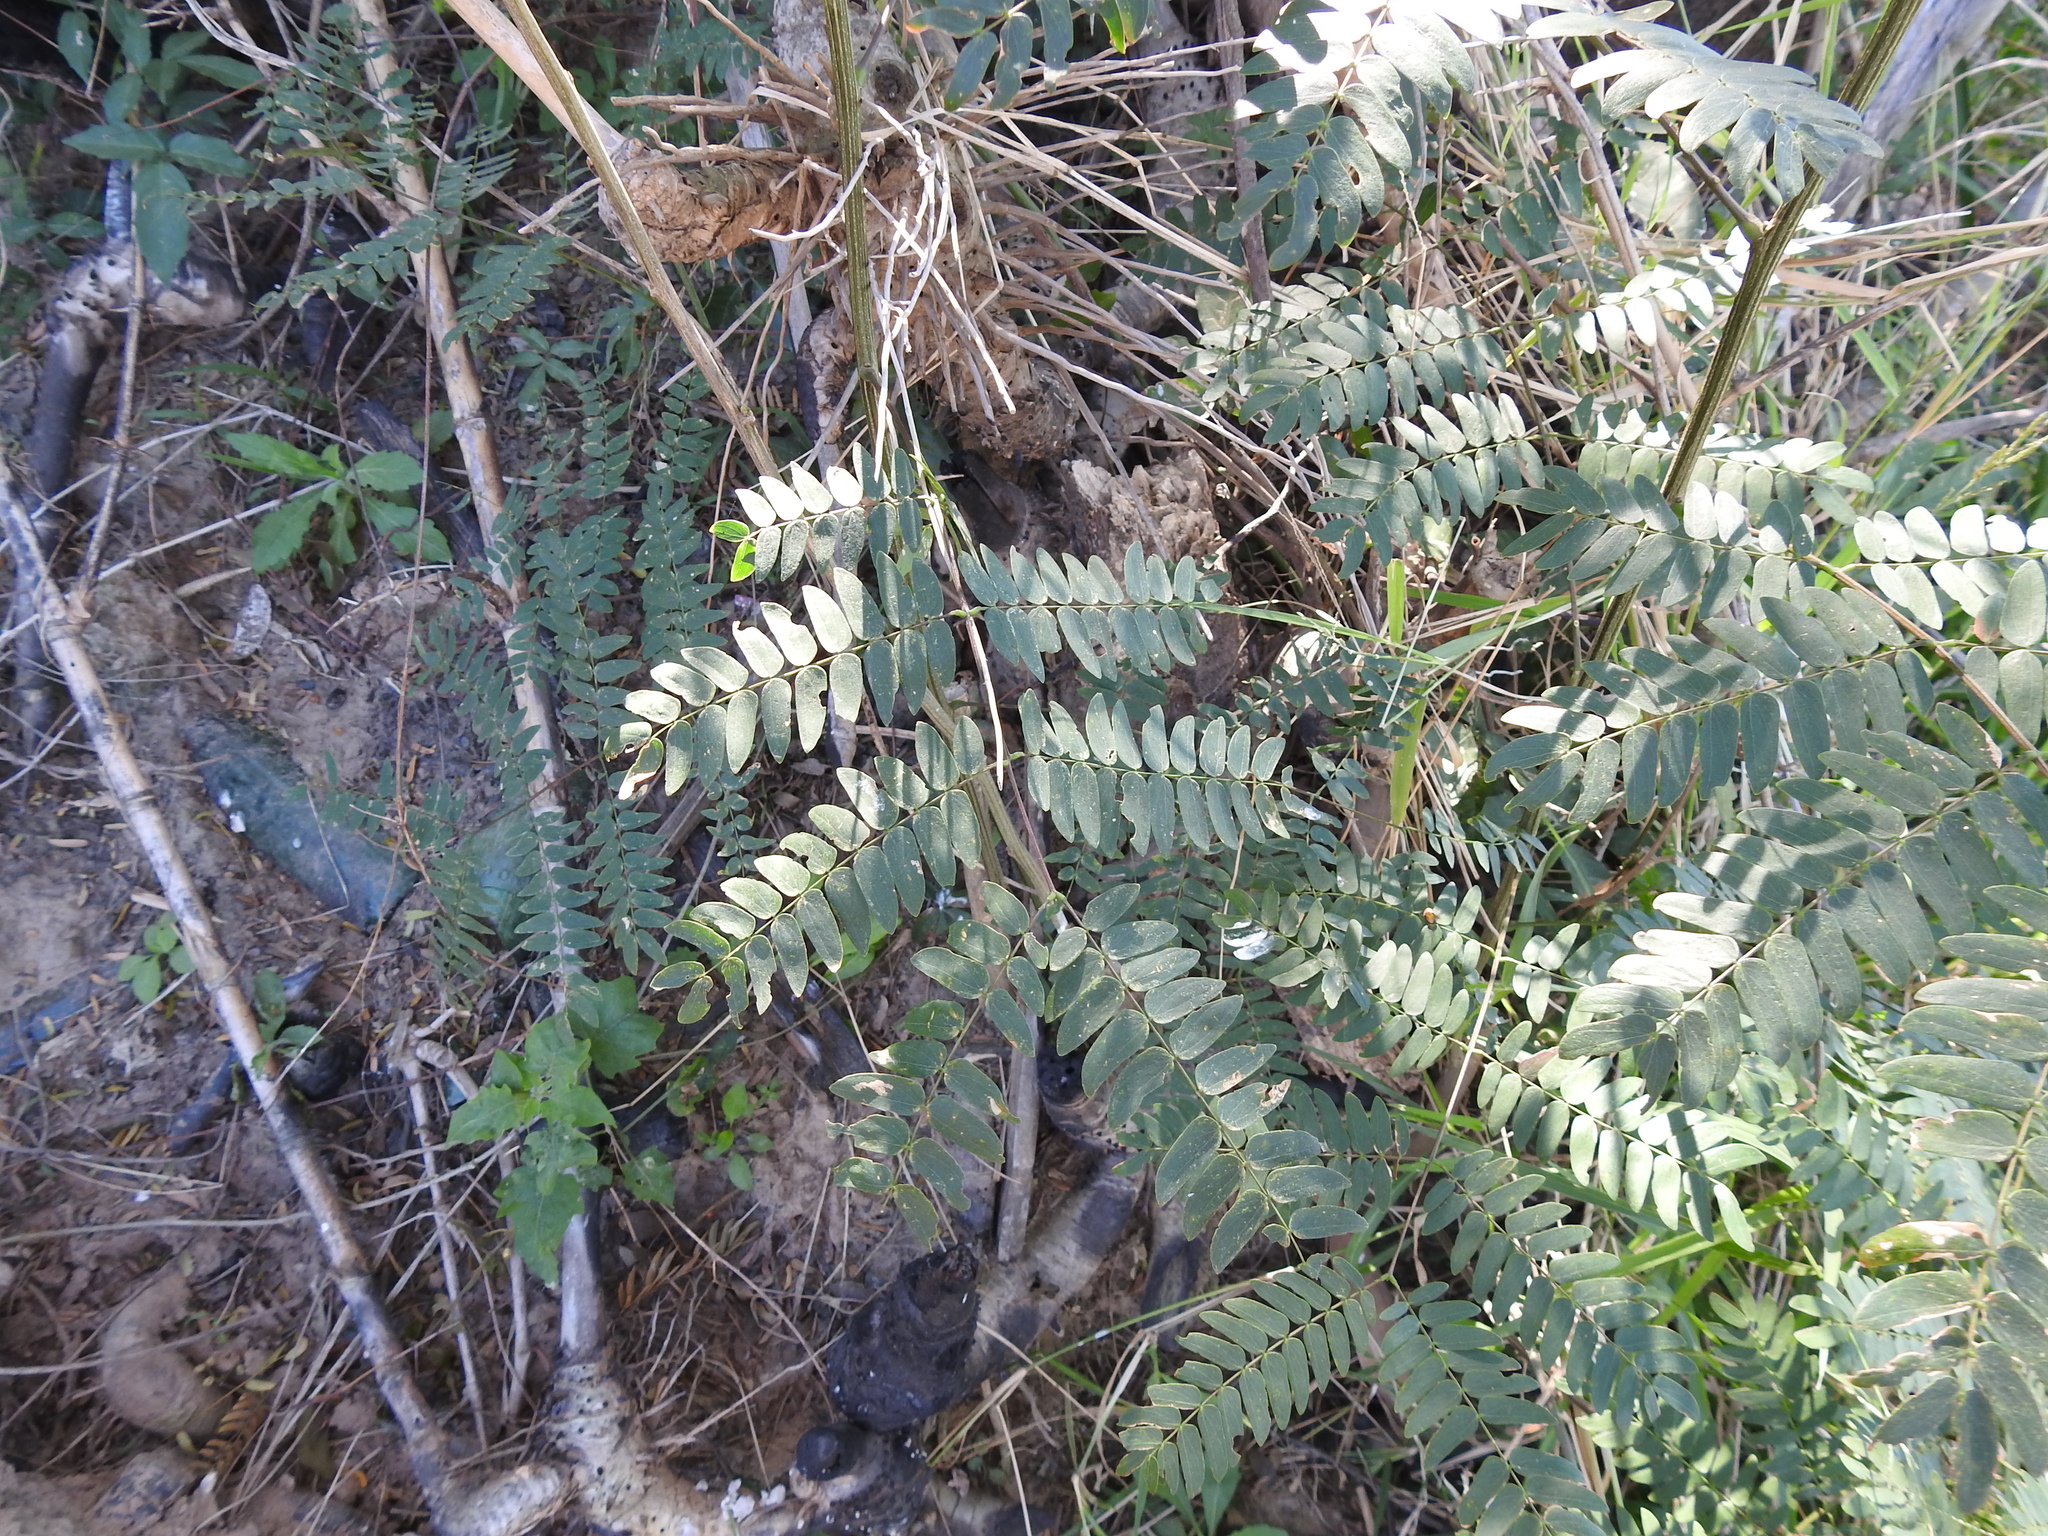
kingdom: Plantae
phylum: Tracheophyta
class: Magnoliopsida
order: Fabales
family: Fabaceae
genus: Albizia
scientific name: Albizia inundata
